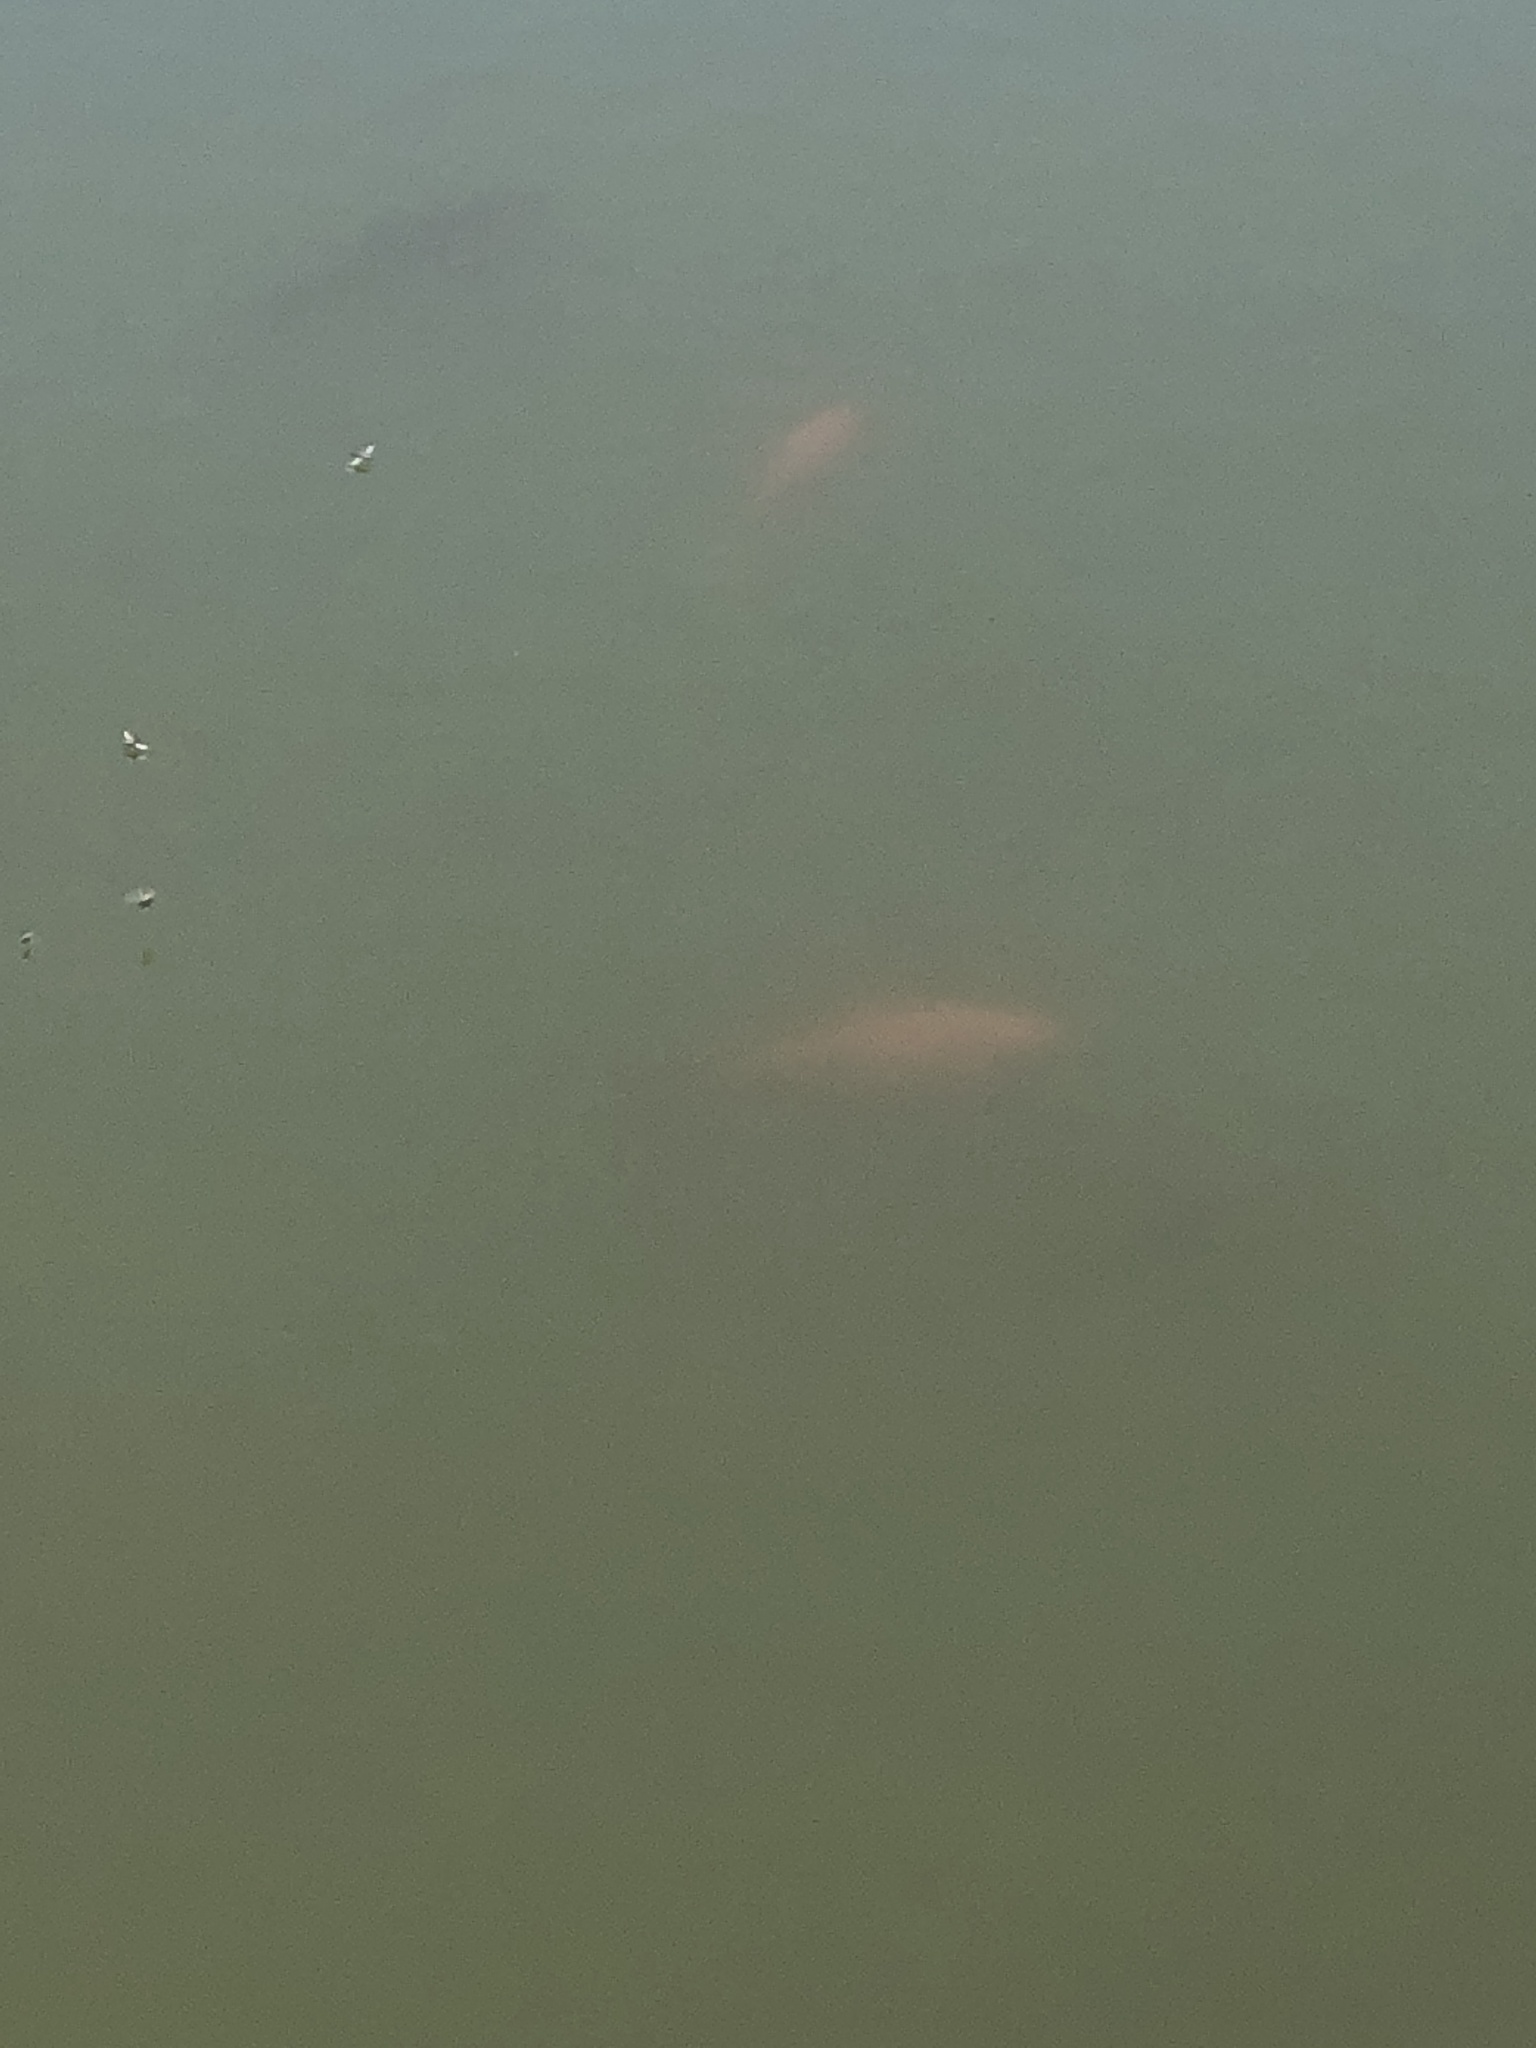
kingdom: Animalia
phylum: Chordata
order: Cypriniformes
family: Cyprinidae
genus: Carassius
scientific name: Carassius auratus
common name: Goldfish
